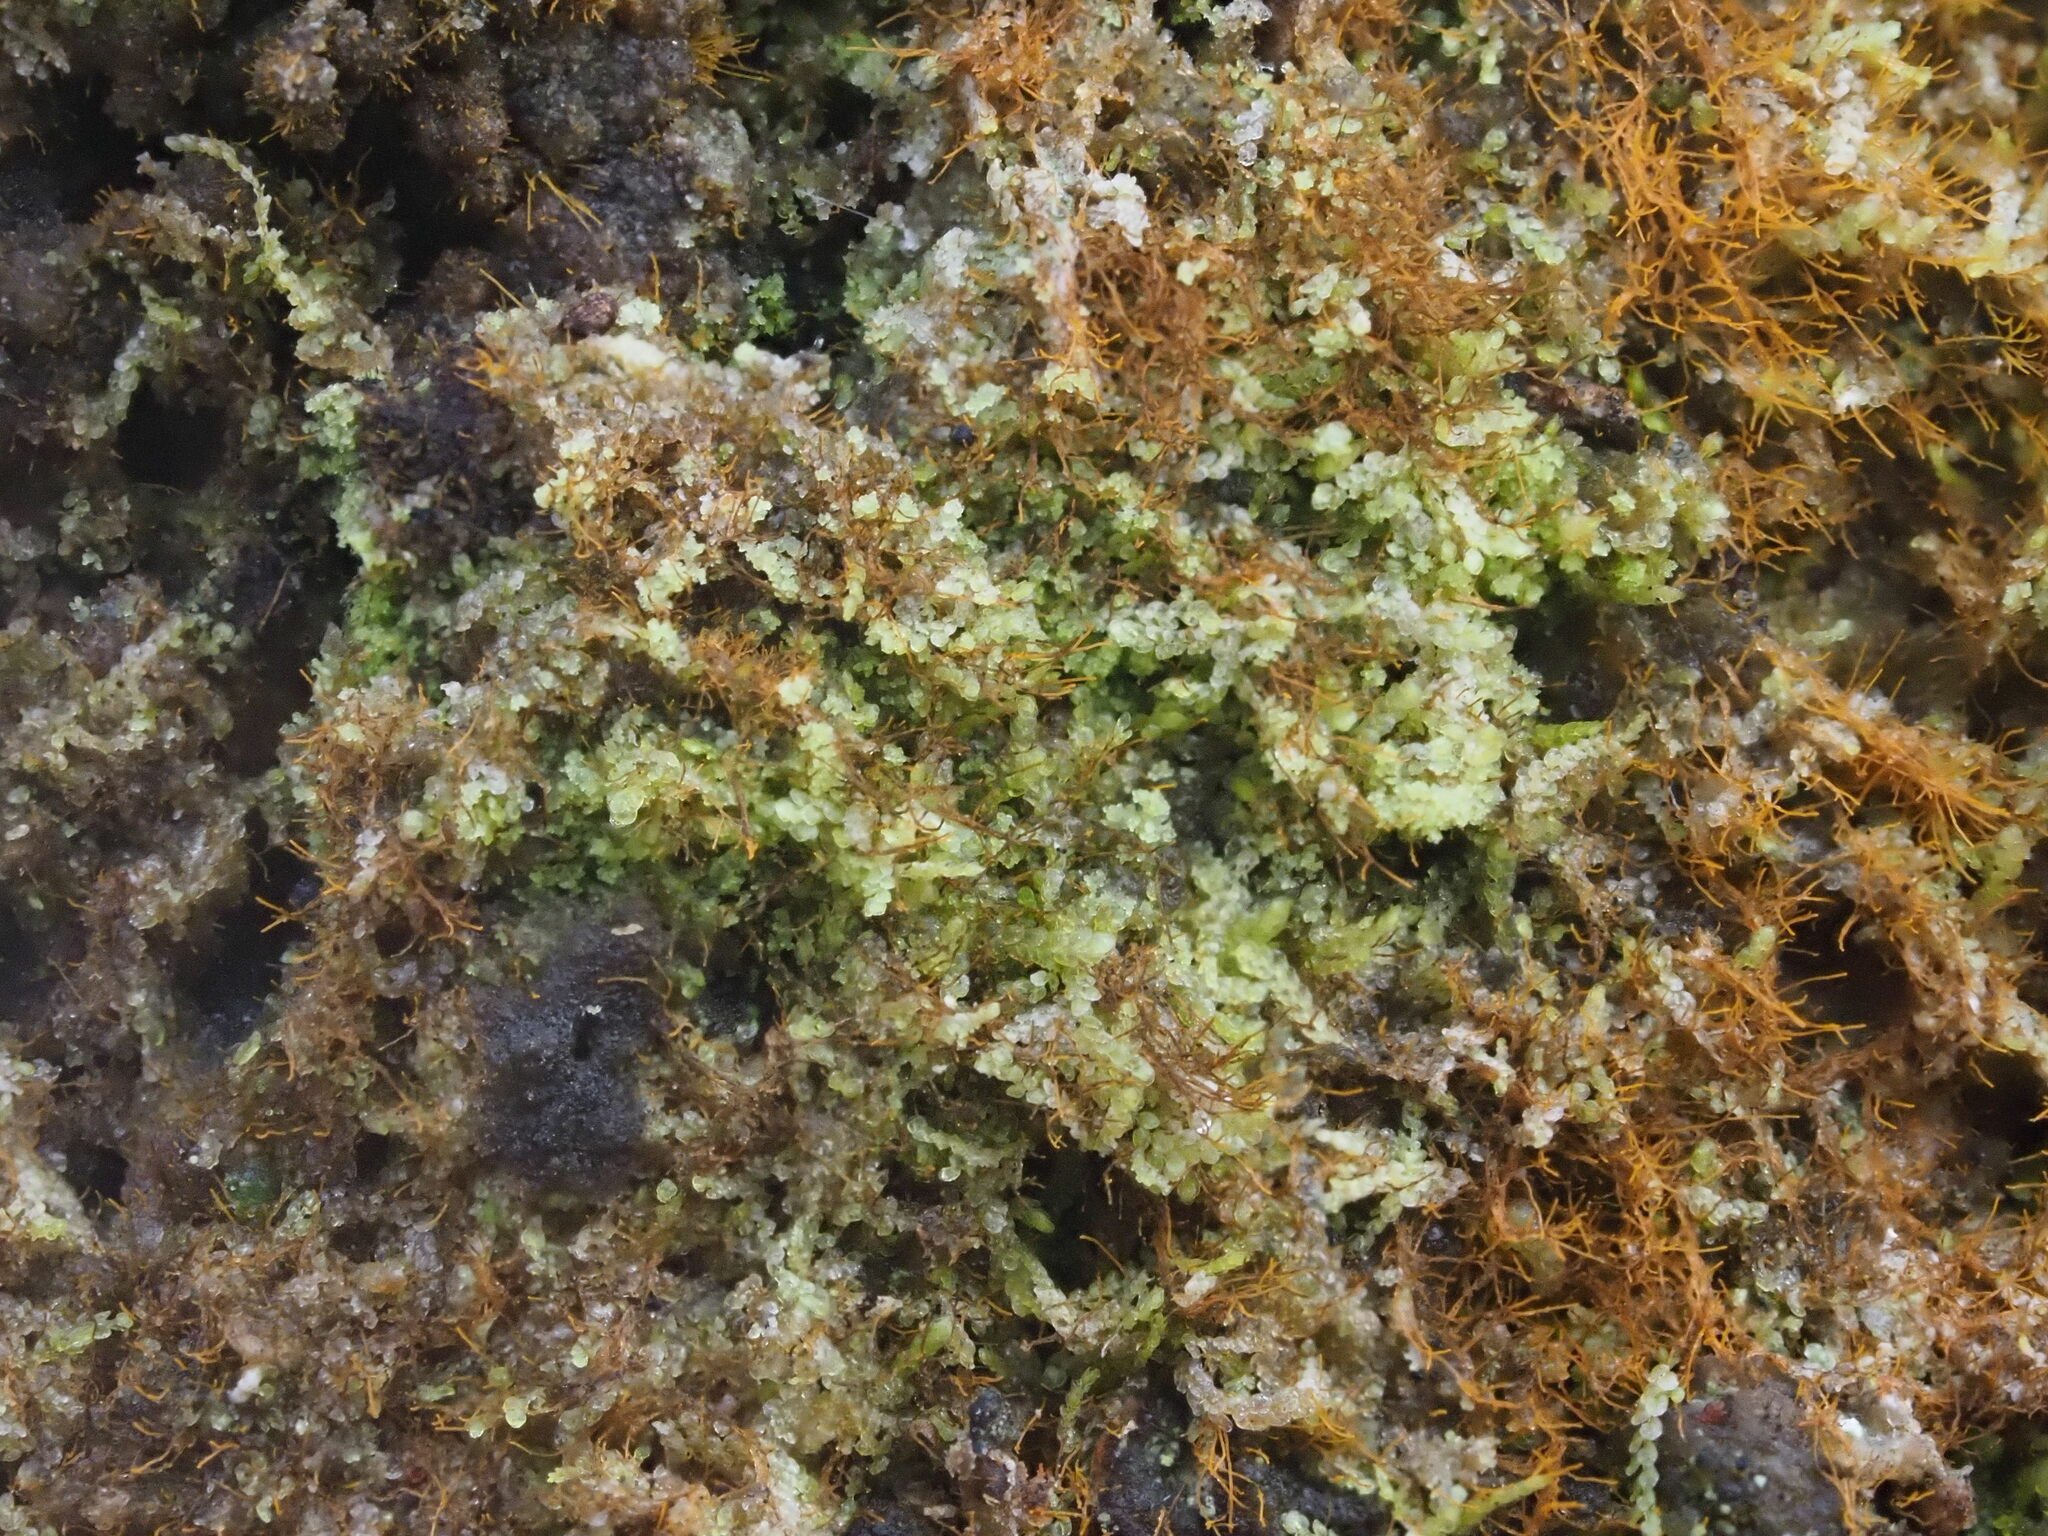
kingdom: Plantae
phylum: Marchantiophyta
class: Jungermanniopsida
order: Porellales
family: Lejeuneaceae
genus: Metalejeunea
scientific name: Metalejeunea cucullata
